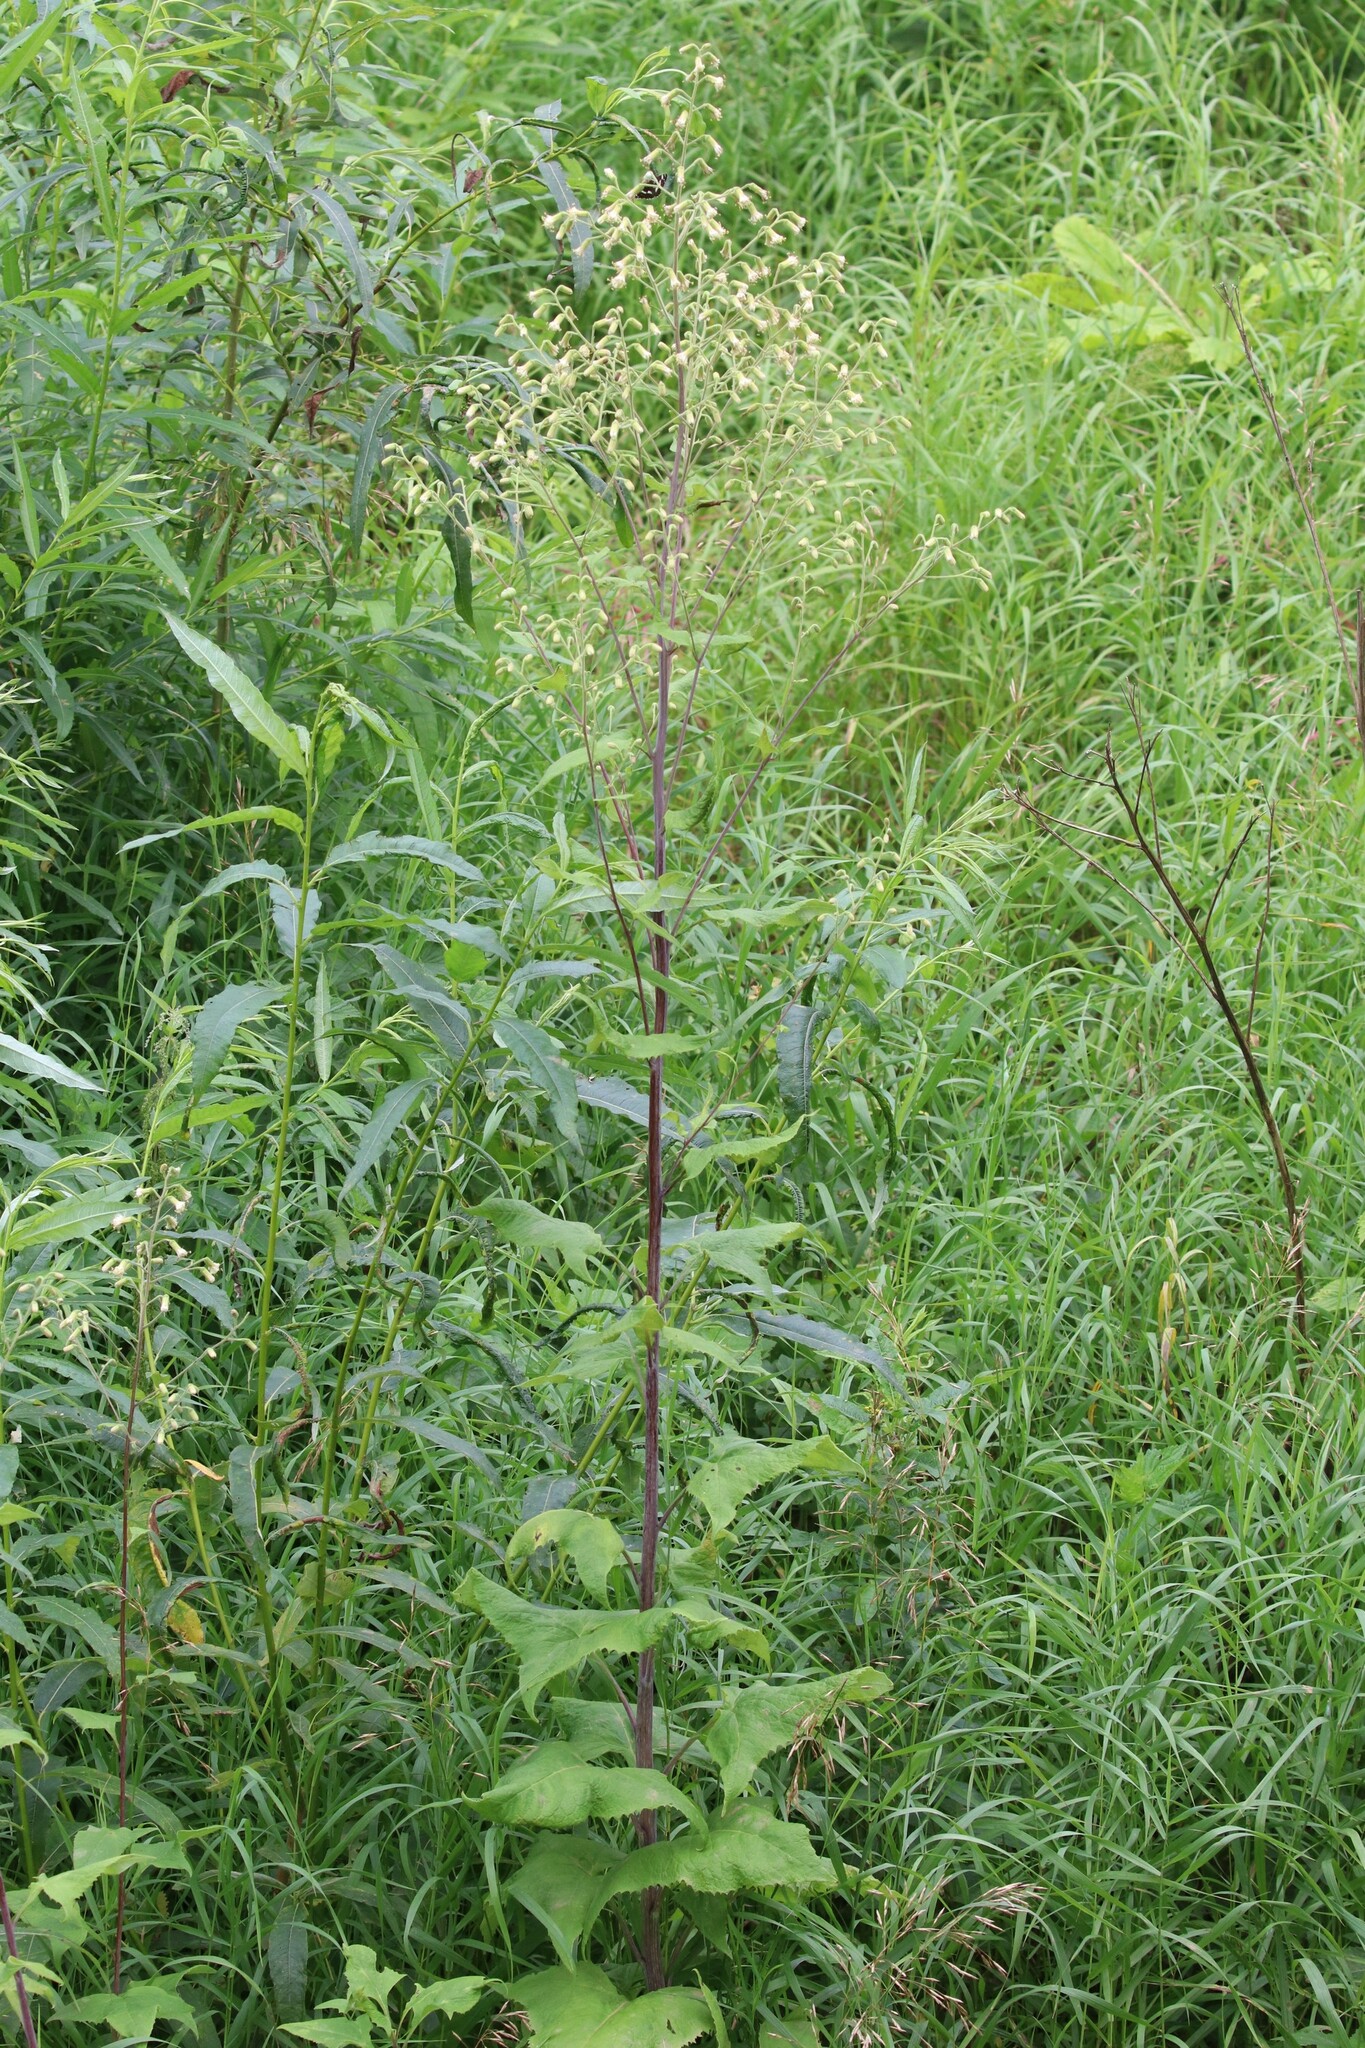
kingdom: Plantae
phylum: Tracheophyta
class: Magnoliopsida
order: Asterales
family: Asteraceae
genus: Parasenecio
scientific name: Parasenecio hastatus
